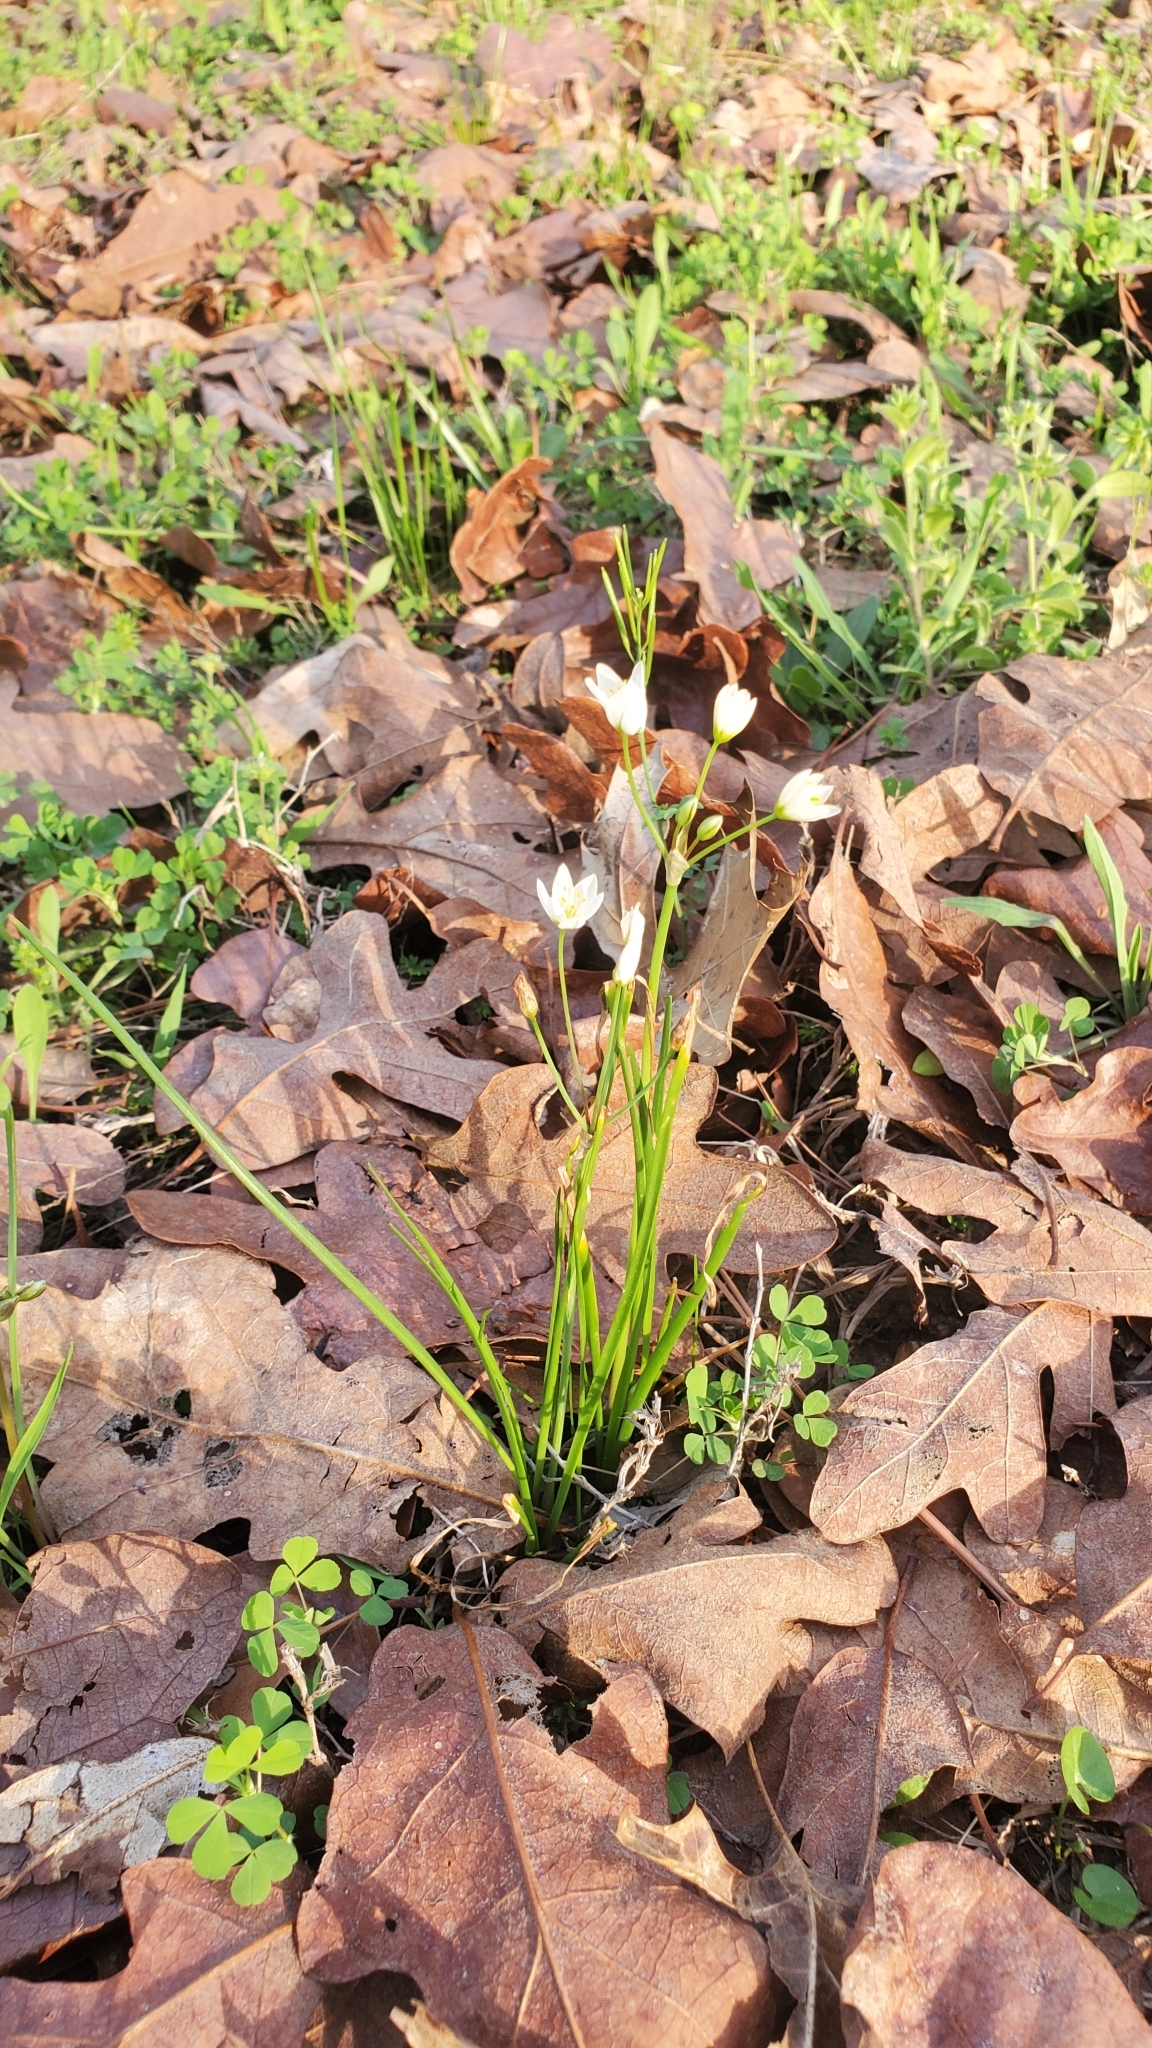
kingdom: Plantae
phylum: Tracheophyta
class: Liliopsida
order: Asparagales
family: Amaryllidaceae
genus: Nothoscordum
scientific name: Nothoscordum bivalve
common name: Crow-poison
